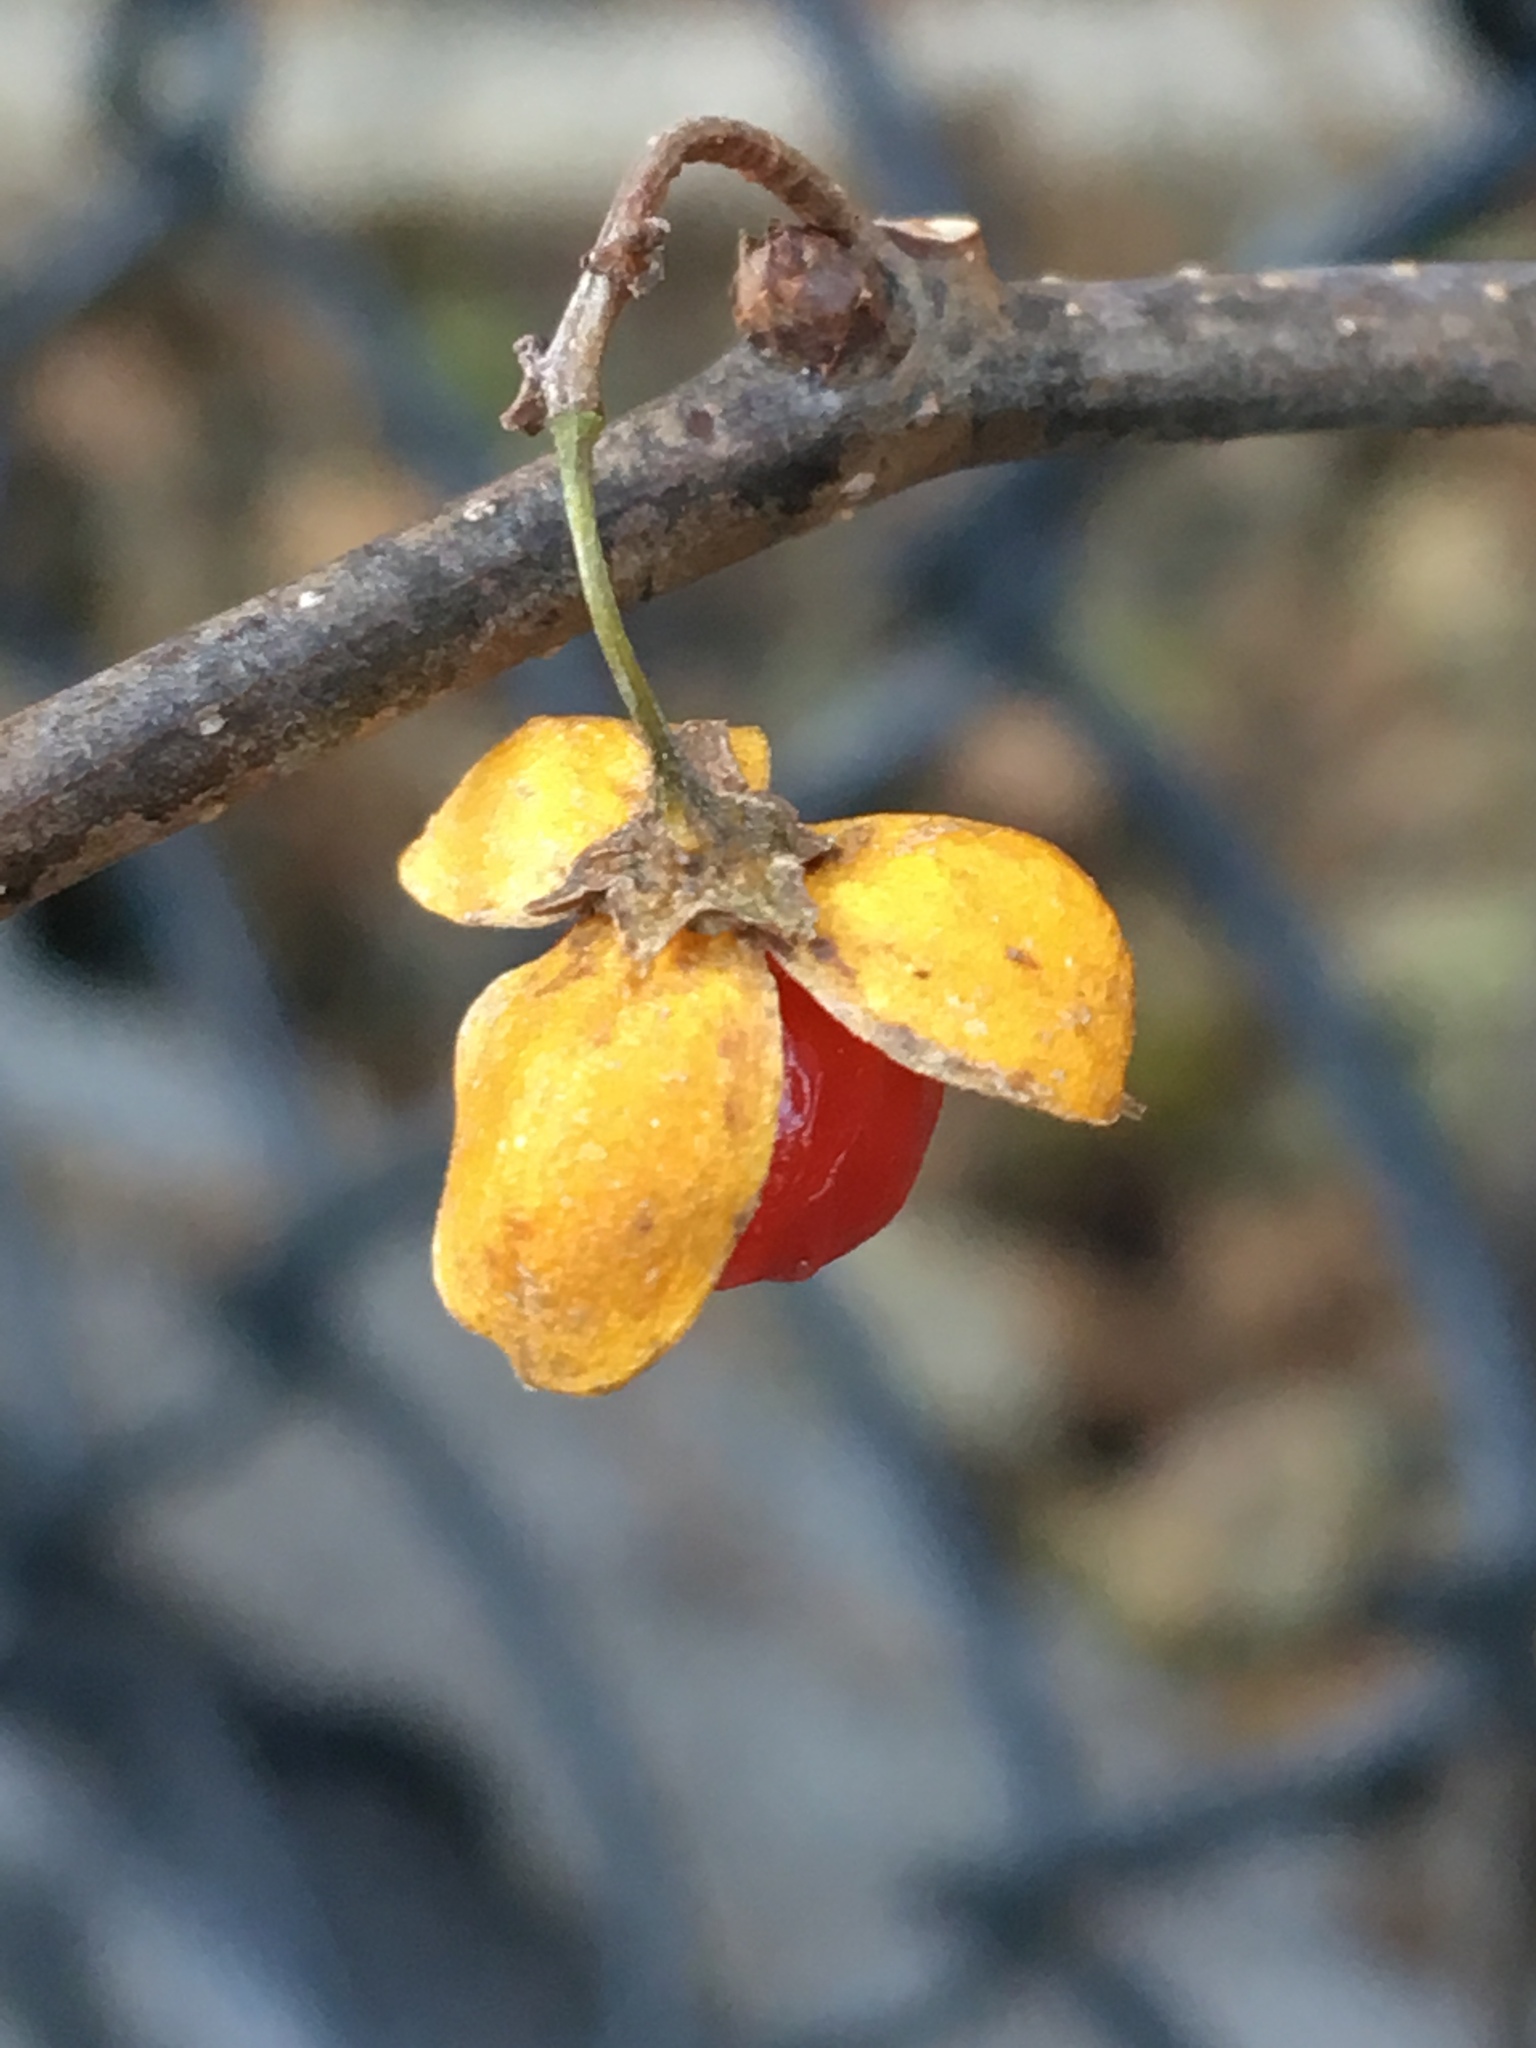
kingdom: Plantae
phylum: Tracheophyta
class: Magnoliopsida
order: Celastrales
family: Celastraceae
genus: Celastrus
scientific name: Celastrus orbiculatus
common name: Oriental bittersweet
